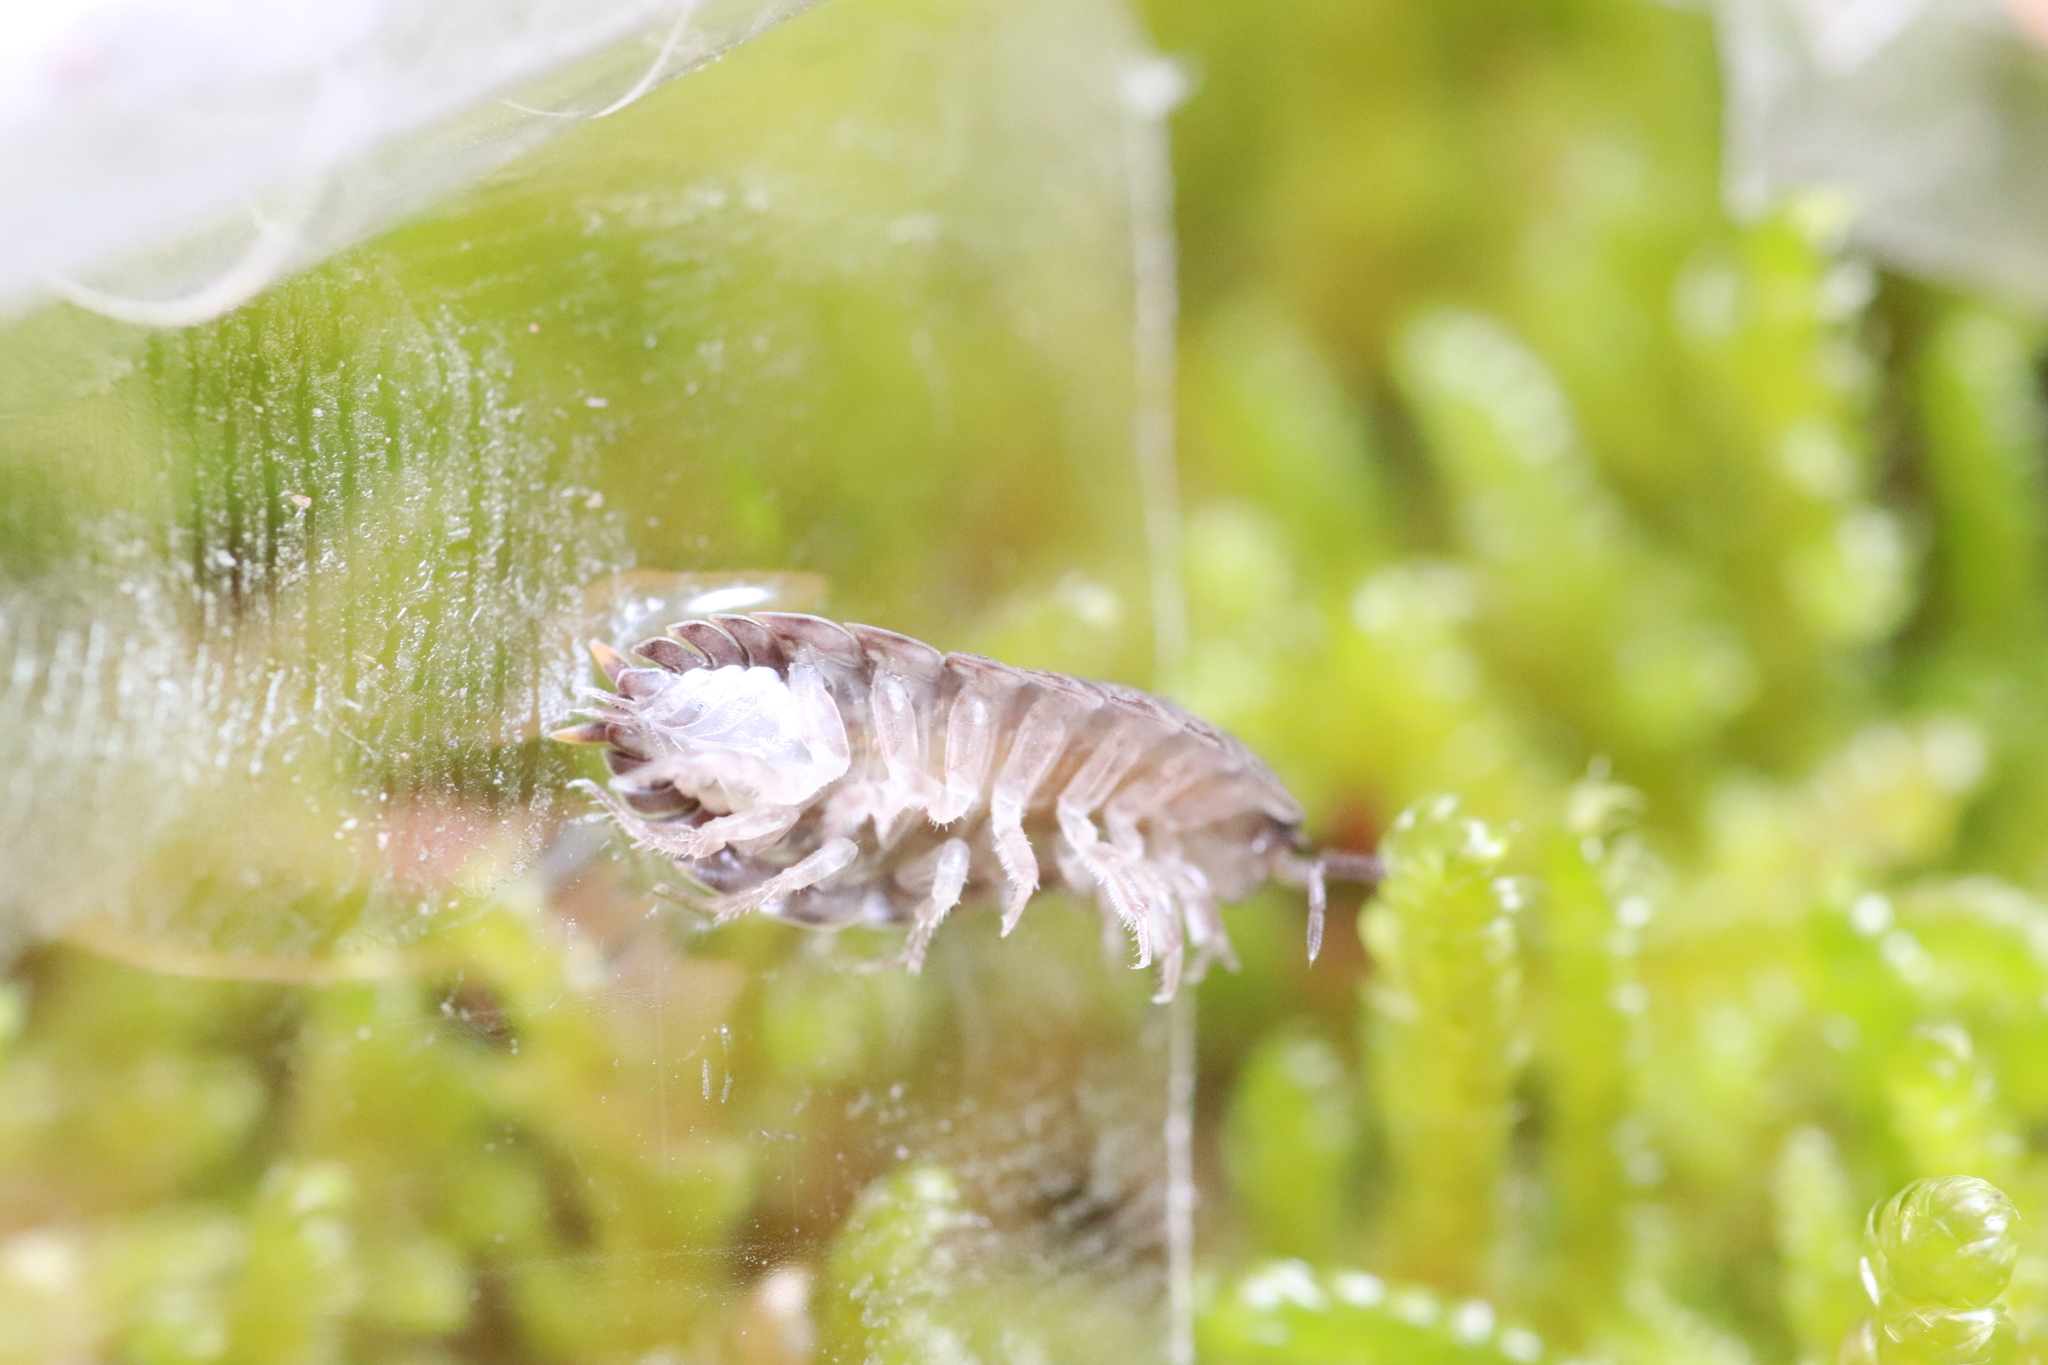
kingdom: Animalia
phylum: Arthropoda
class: Malacostraca
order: Isopoda
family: Trachelipodidae
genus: Trachelipus
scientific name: Trachelipus rathkii
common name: Isopod
